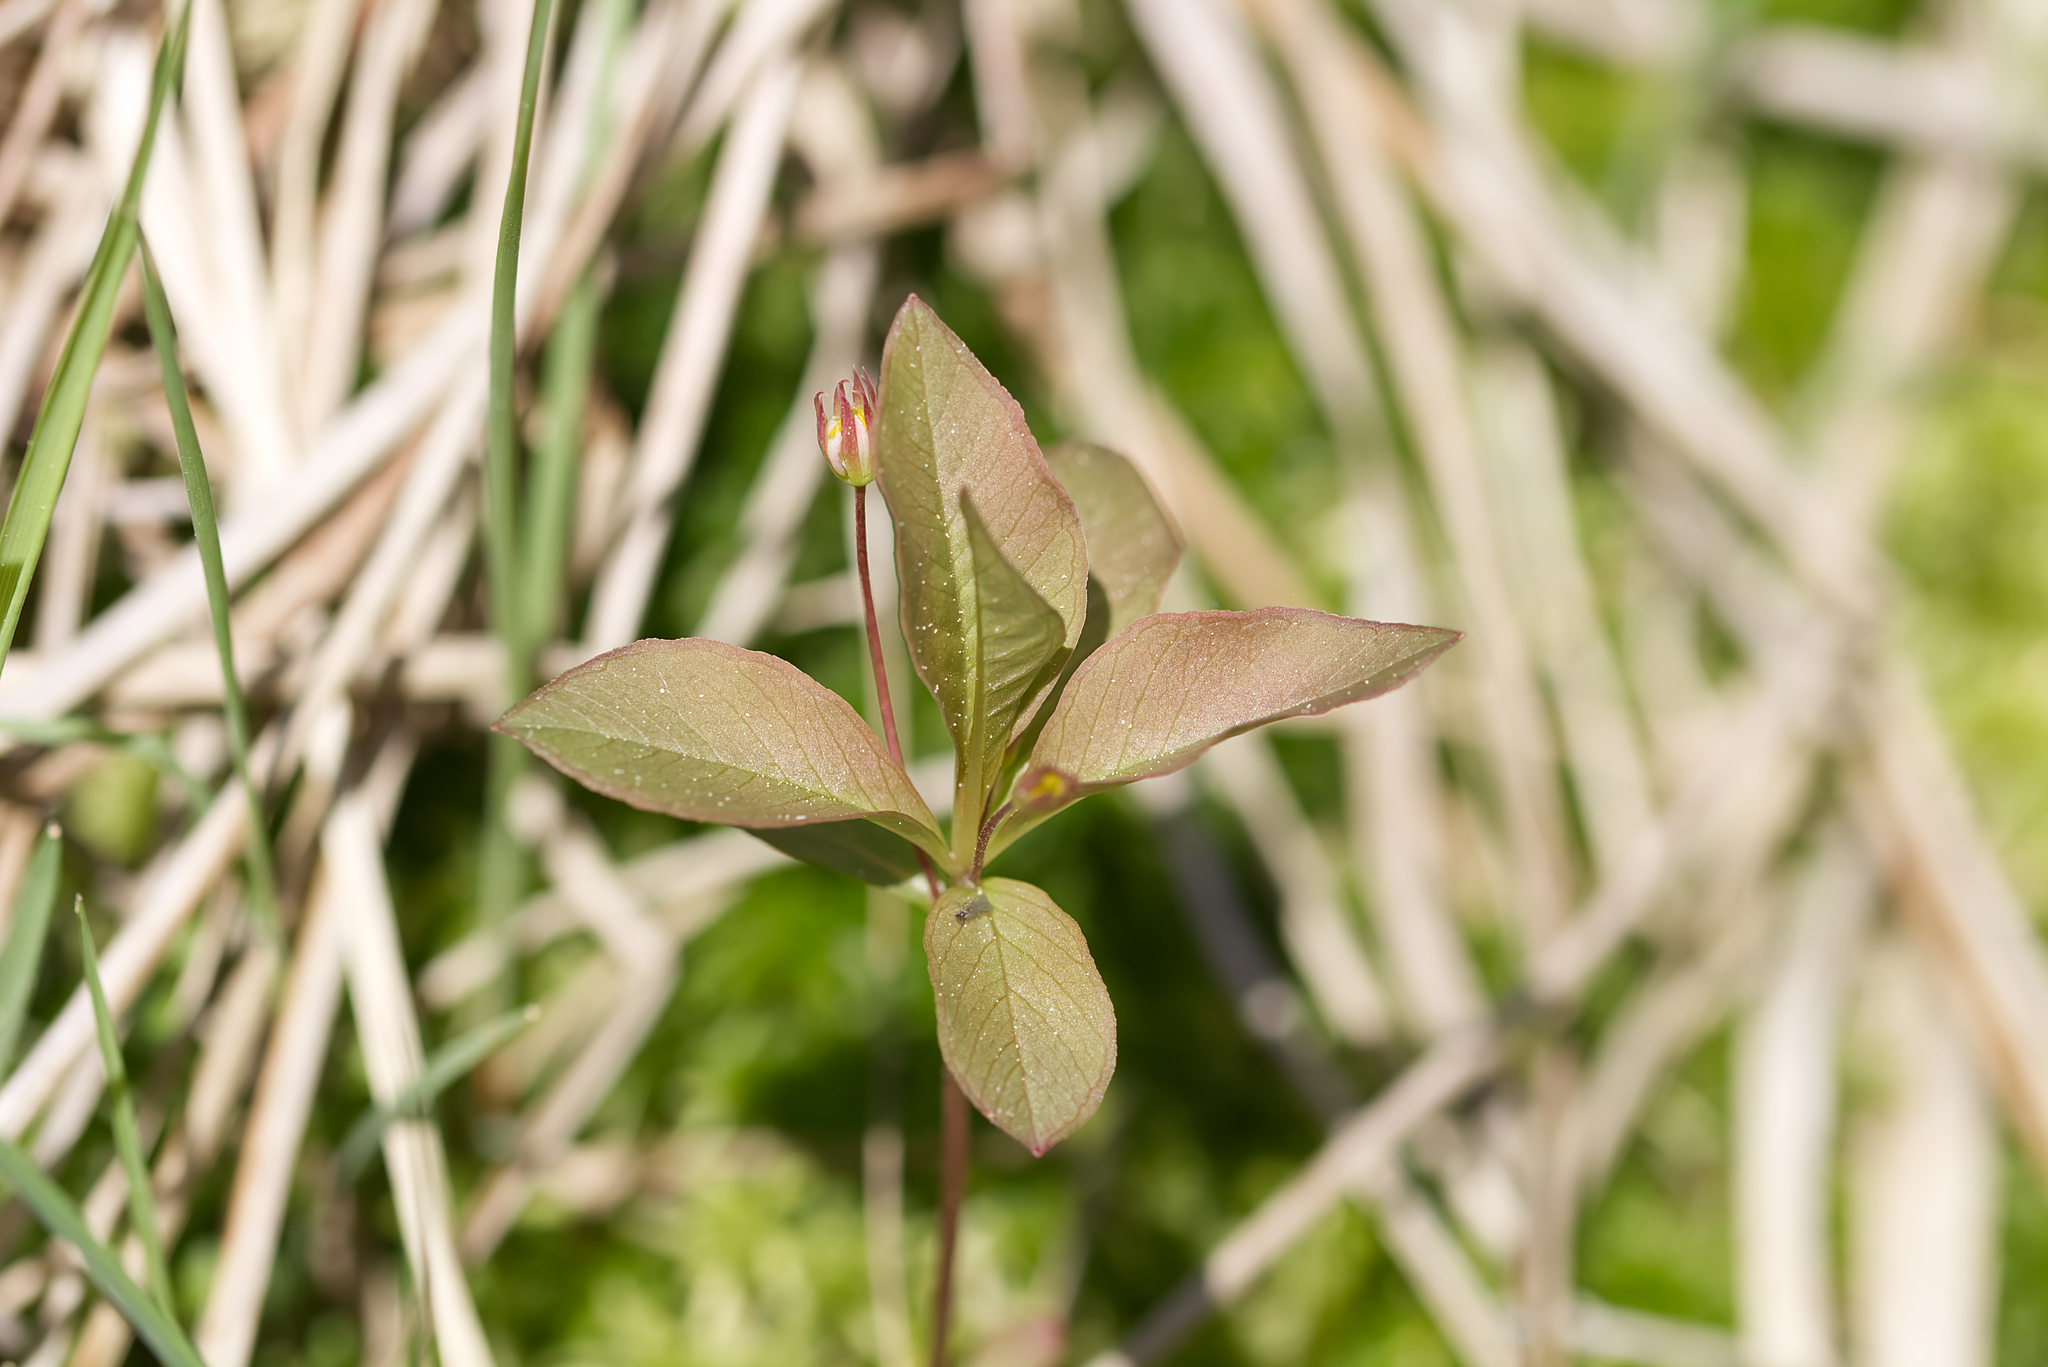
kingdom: Plantae
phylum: Tracheophyta
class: Magnoliopsida
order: Ericales
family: Primulaceae
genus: Lysimachia
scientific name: Lysimachia europaea
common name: Arctic starflower
